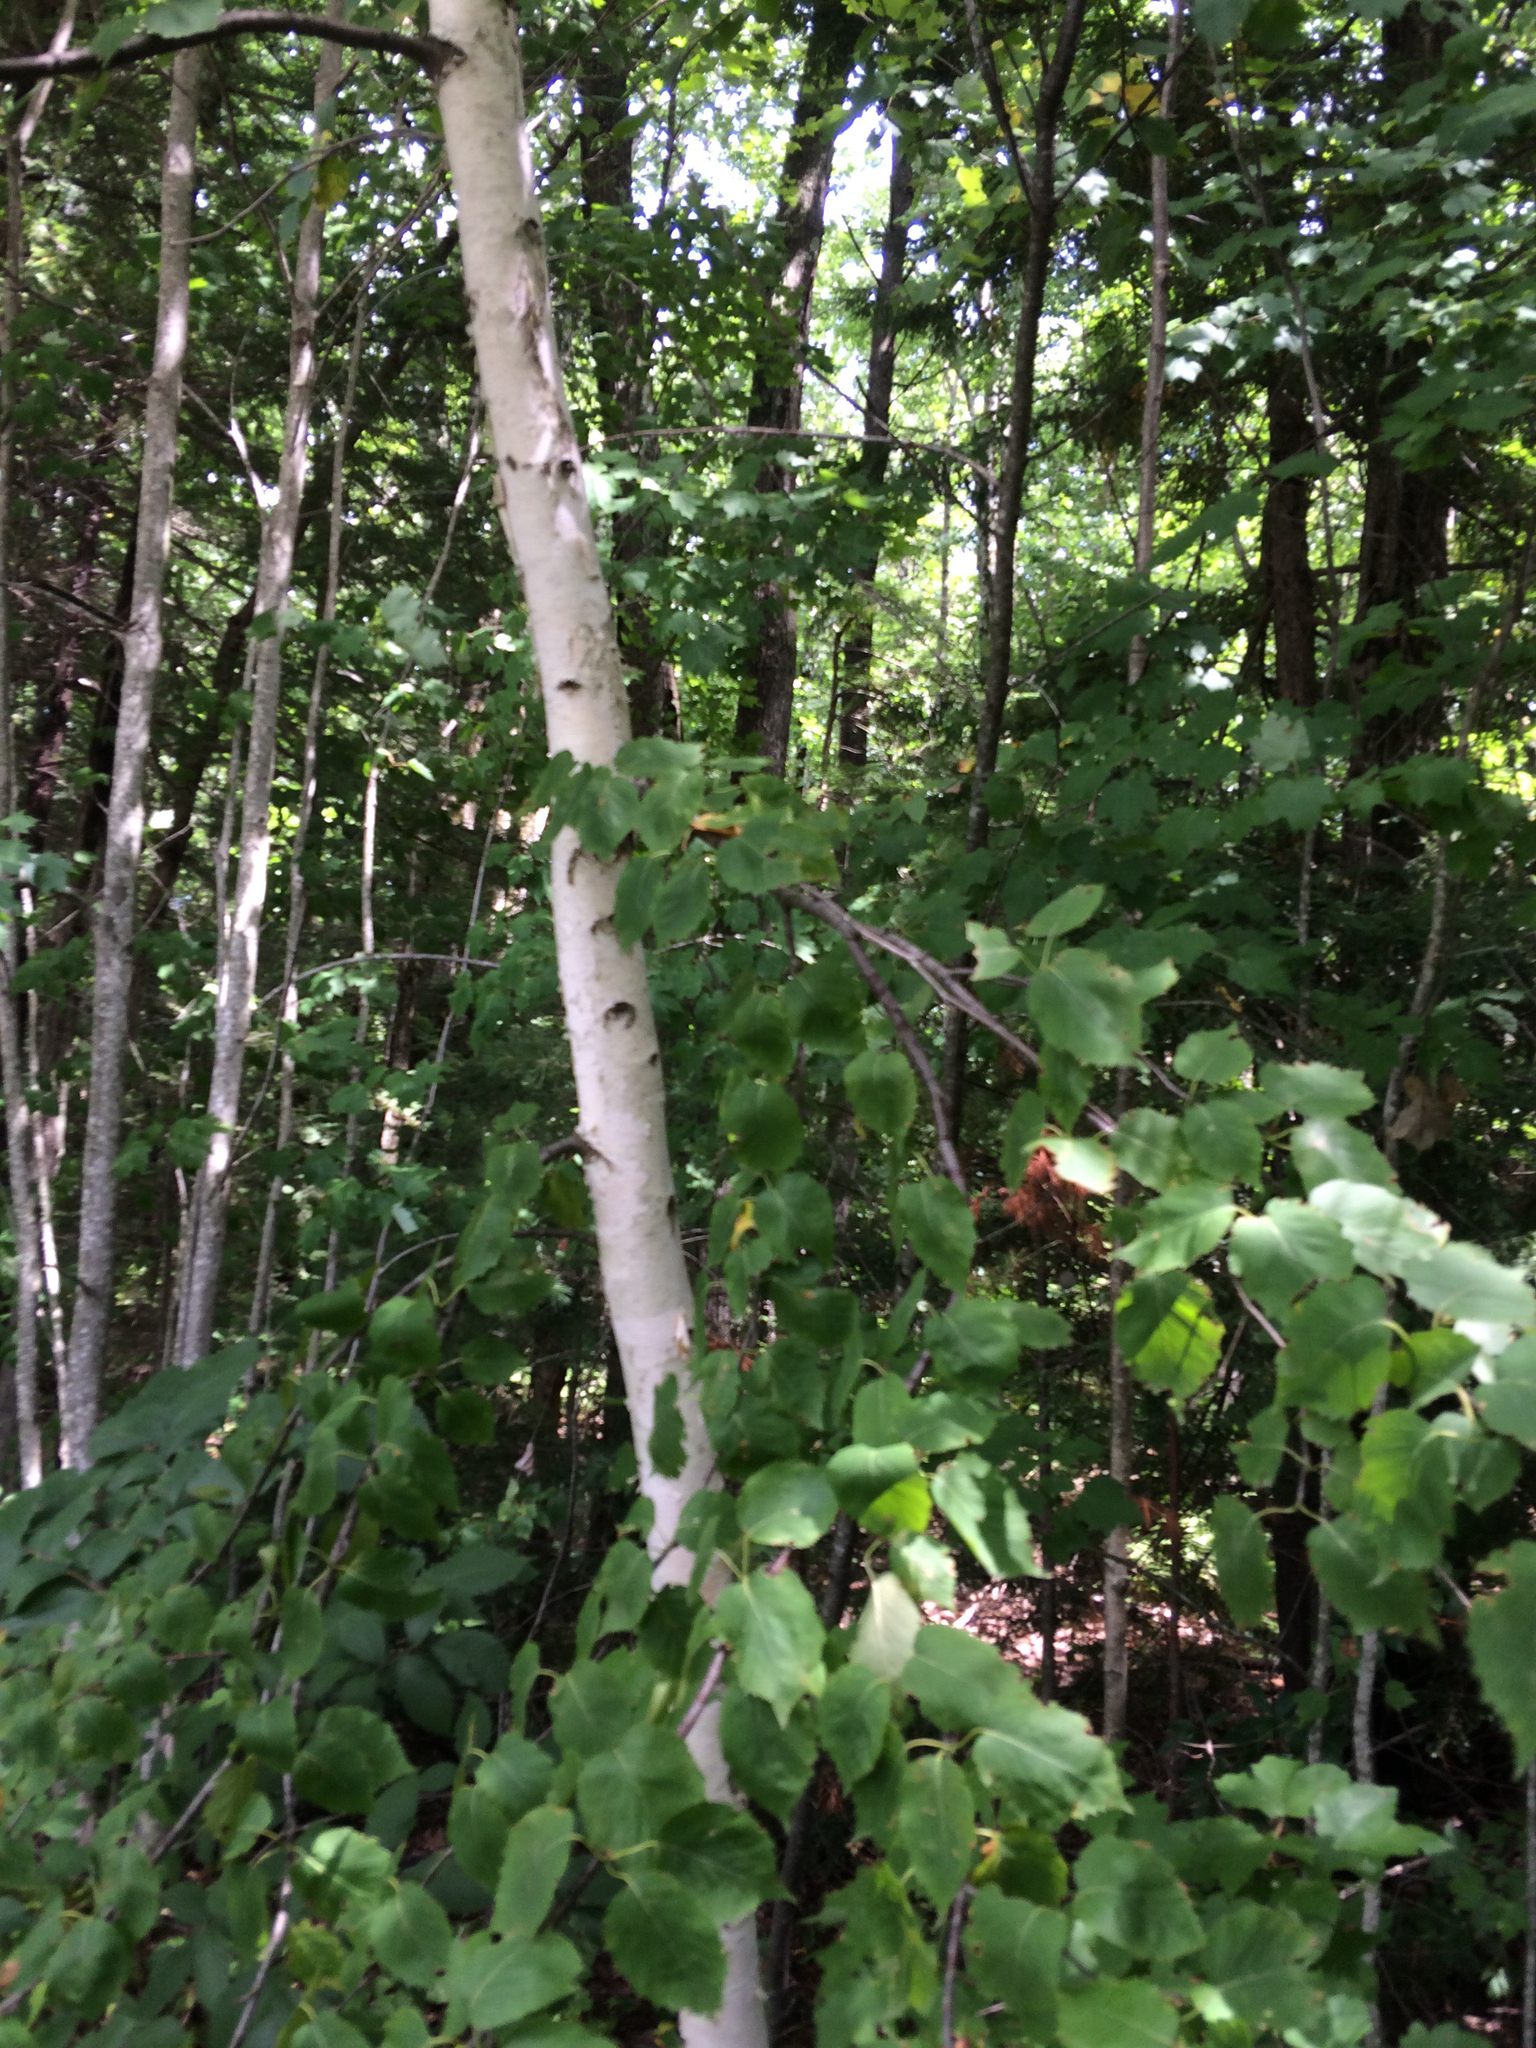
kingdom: Plantae
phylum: Tracheophyta
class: Magnoliopsida
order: Fagales
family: Betulaceae
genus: Betula
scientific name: Betula papyrifera
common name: Paper birch
